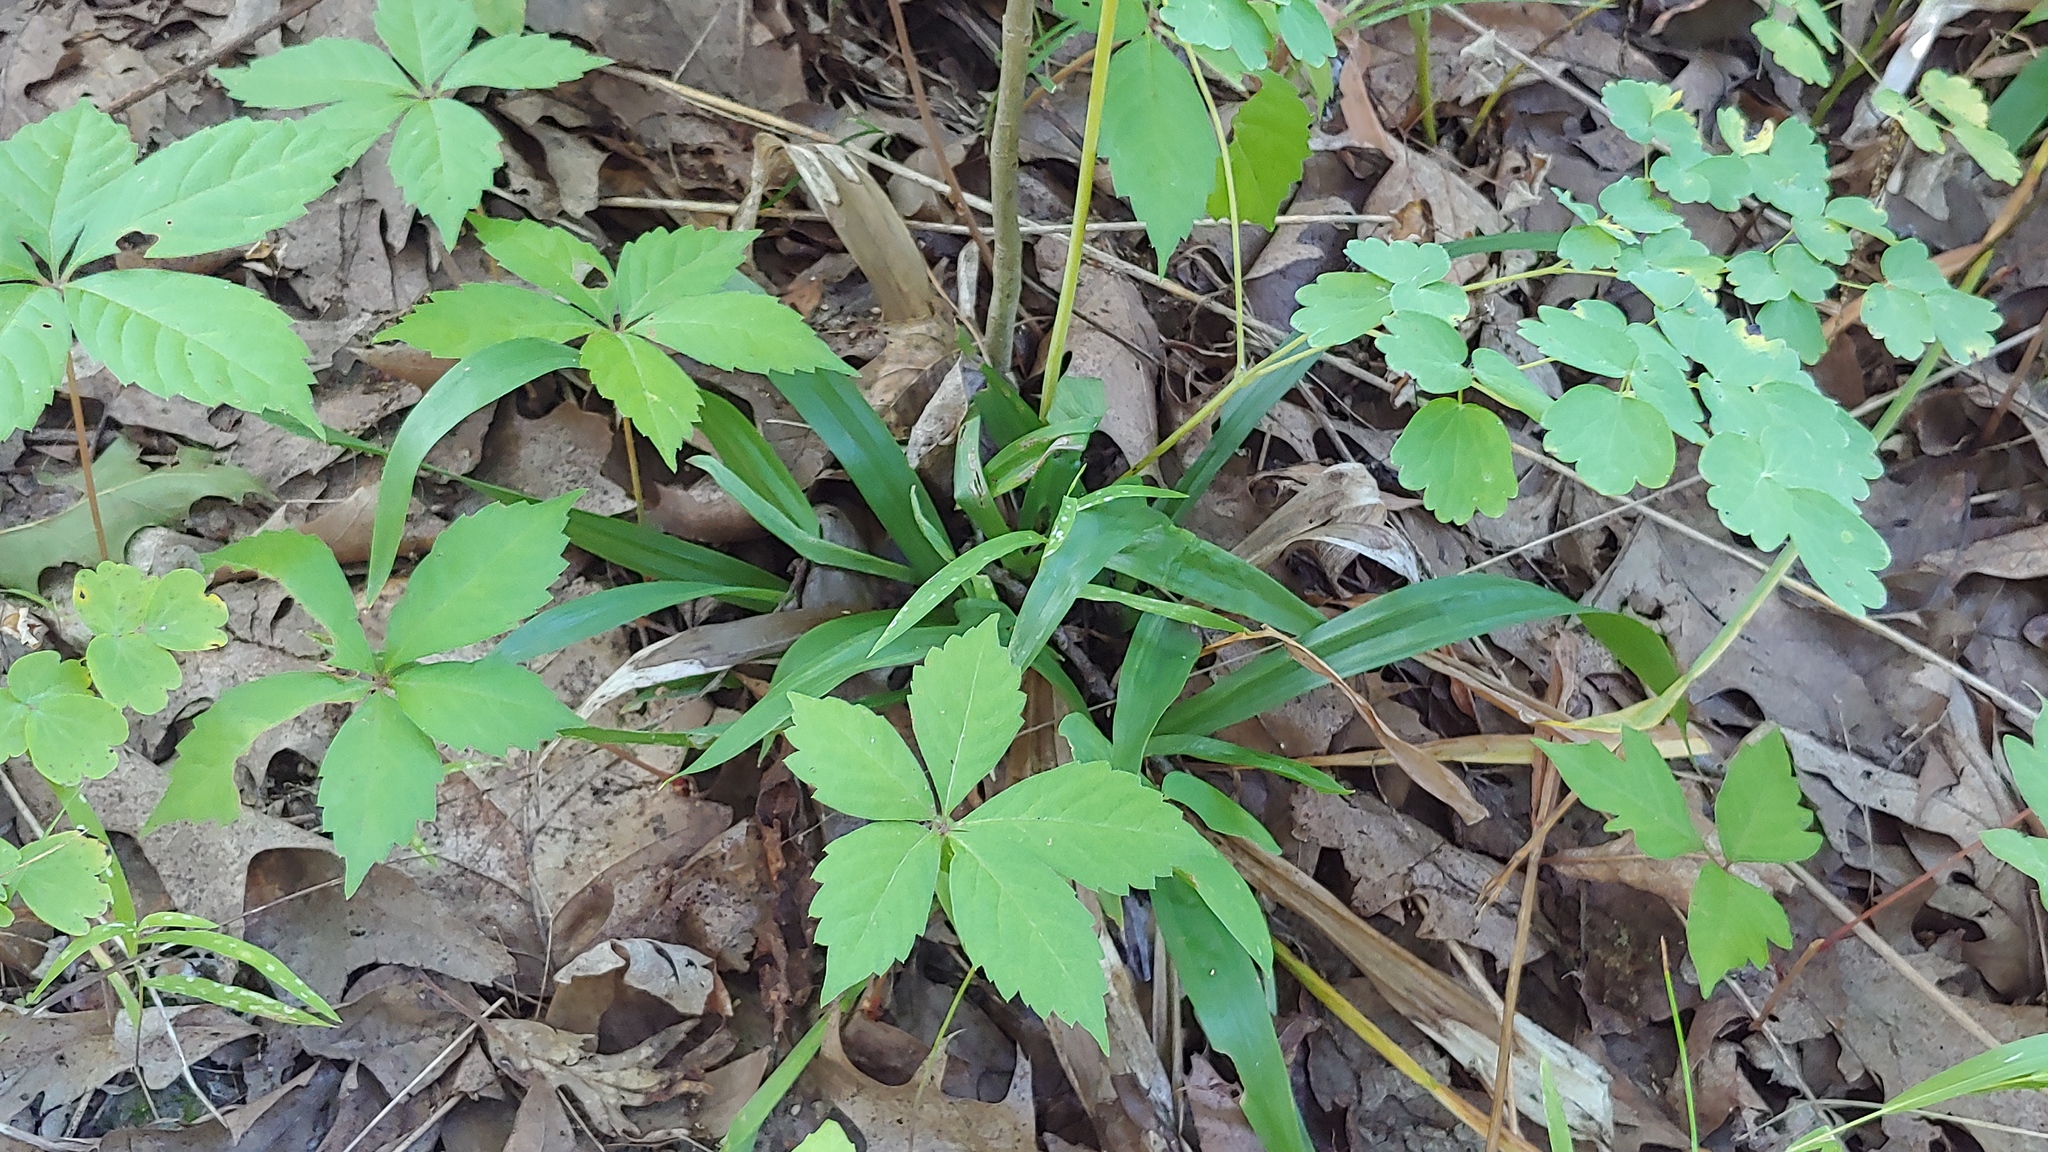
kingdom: Plantae
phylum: Tracheophyta
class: Liliopsida
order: Poales
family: Cyperaceae
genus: Carex
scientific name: Carex albursina
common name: Blunt-scale wood sedge
